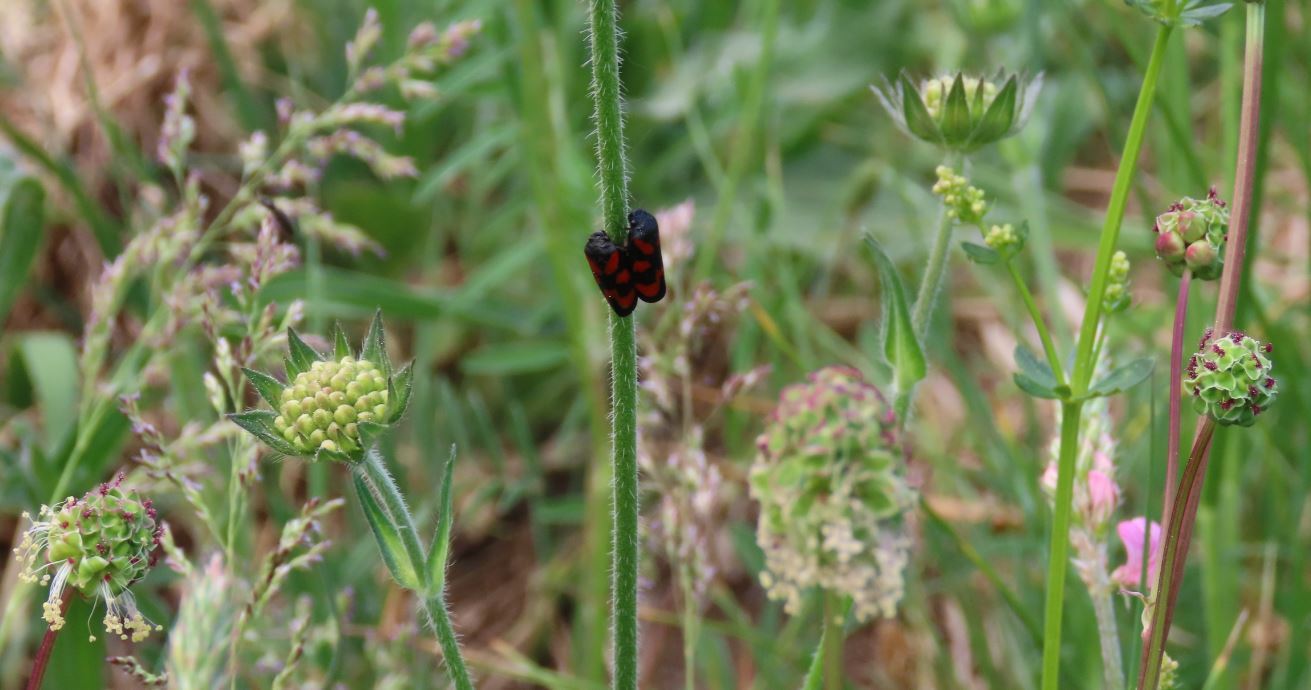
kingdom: Animalia
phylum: Arthropoda
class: Insecta
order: Hemiptera
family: Cercopidae
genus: Cercopis
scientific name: Cercopis vulnerata
